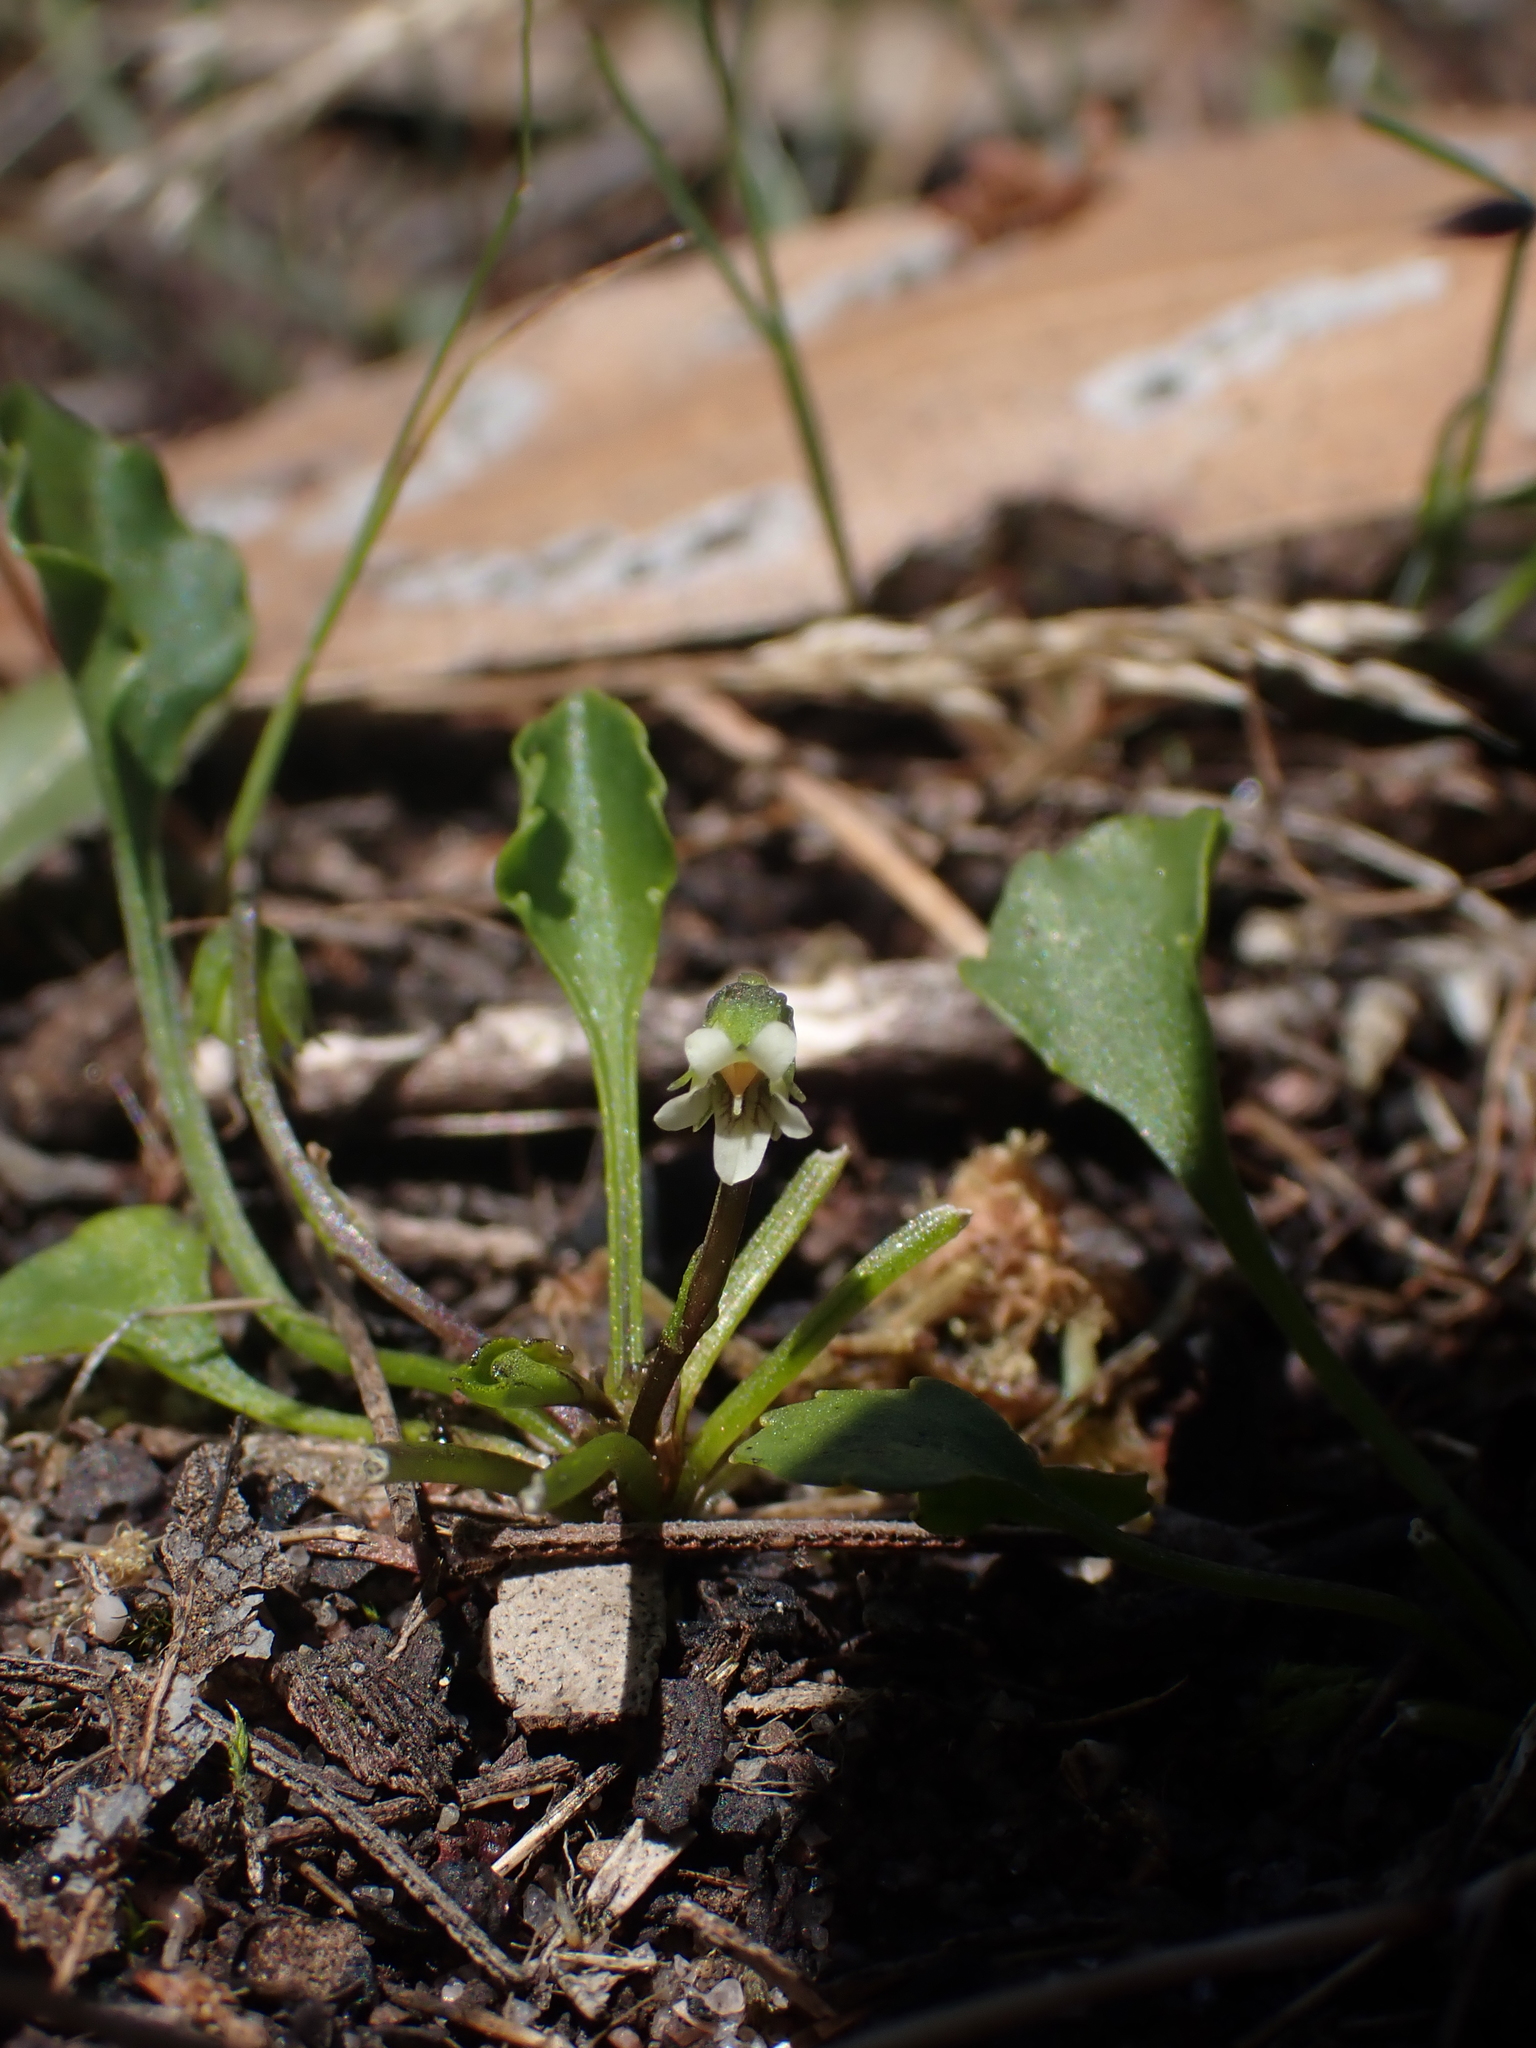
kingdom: Plantae
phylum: Tracheophyta
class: Magnoliopsida
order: Malpighiales
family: Violaceae
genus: Viola
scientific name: Viola cleistogamoides
